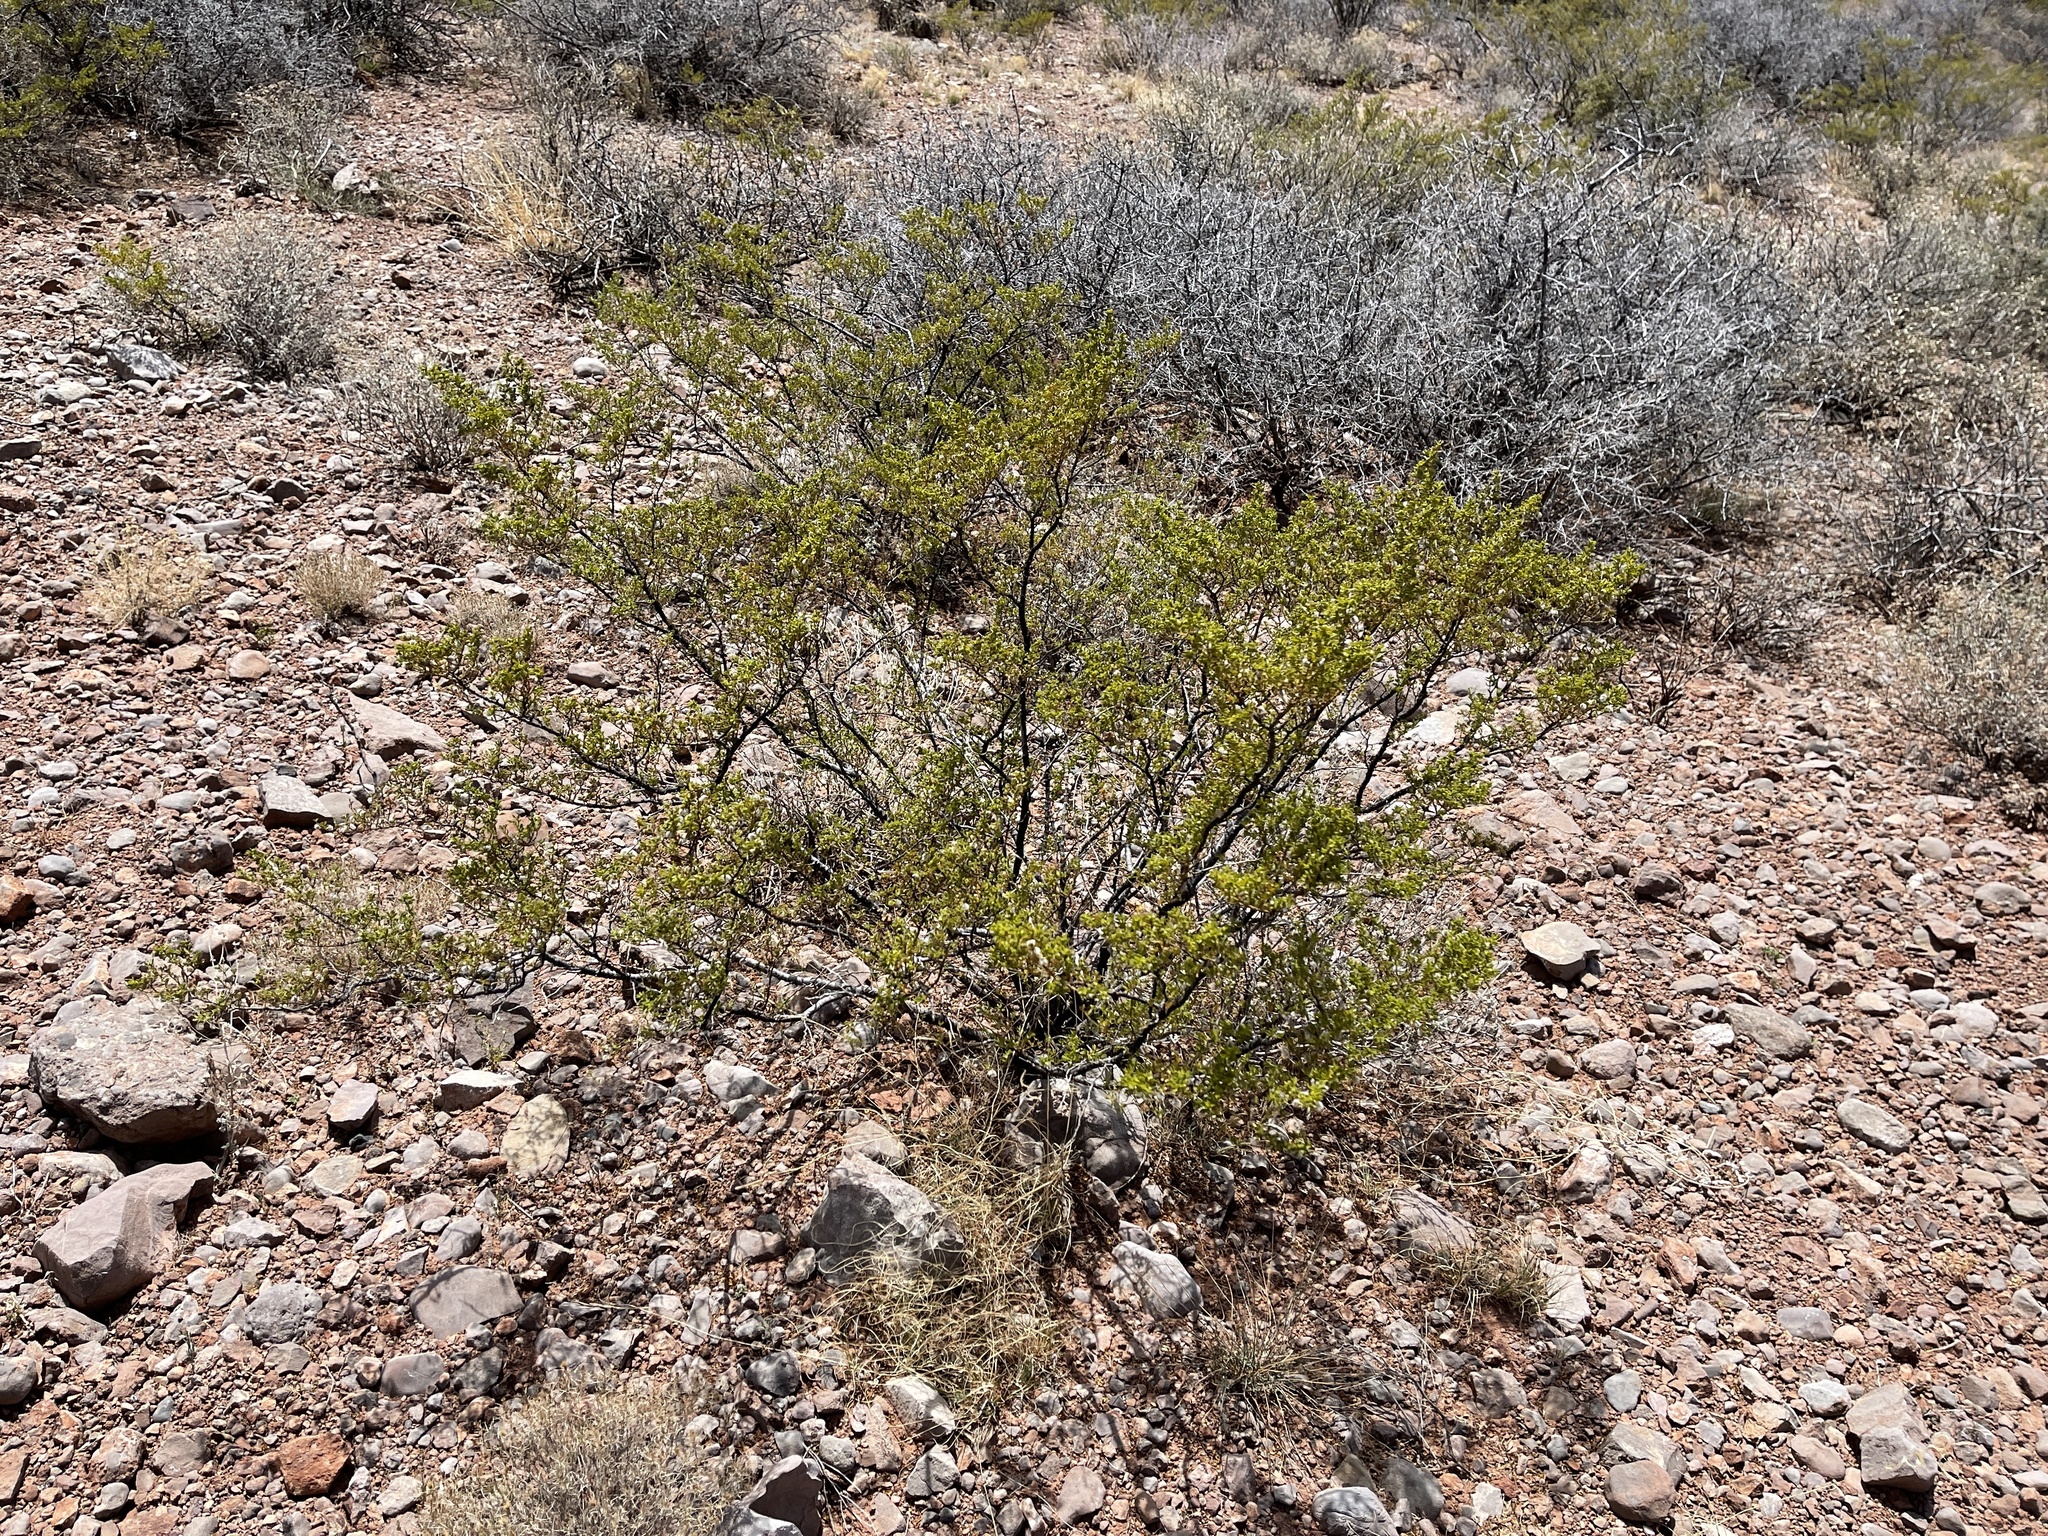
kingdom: Plantae
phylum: Tracheophyta
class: Magnoliopsida
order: Zygophyllales
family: Zygophyllaceae
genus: Larrea
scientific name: Larrea tridentata
